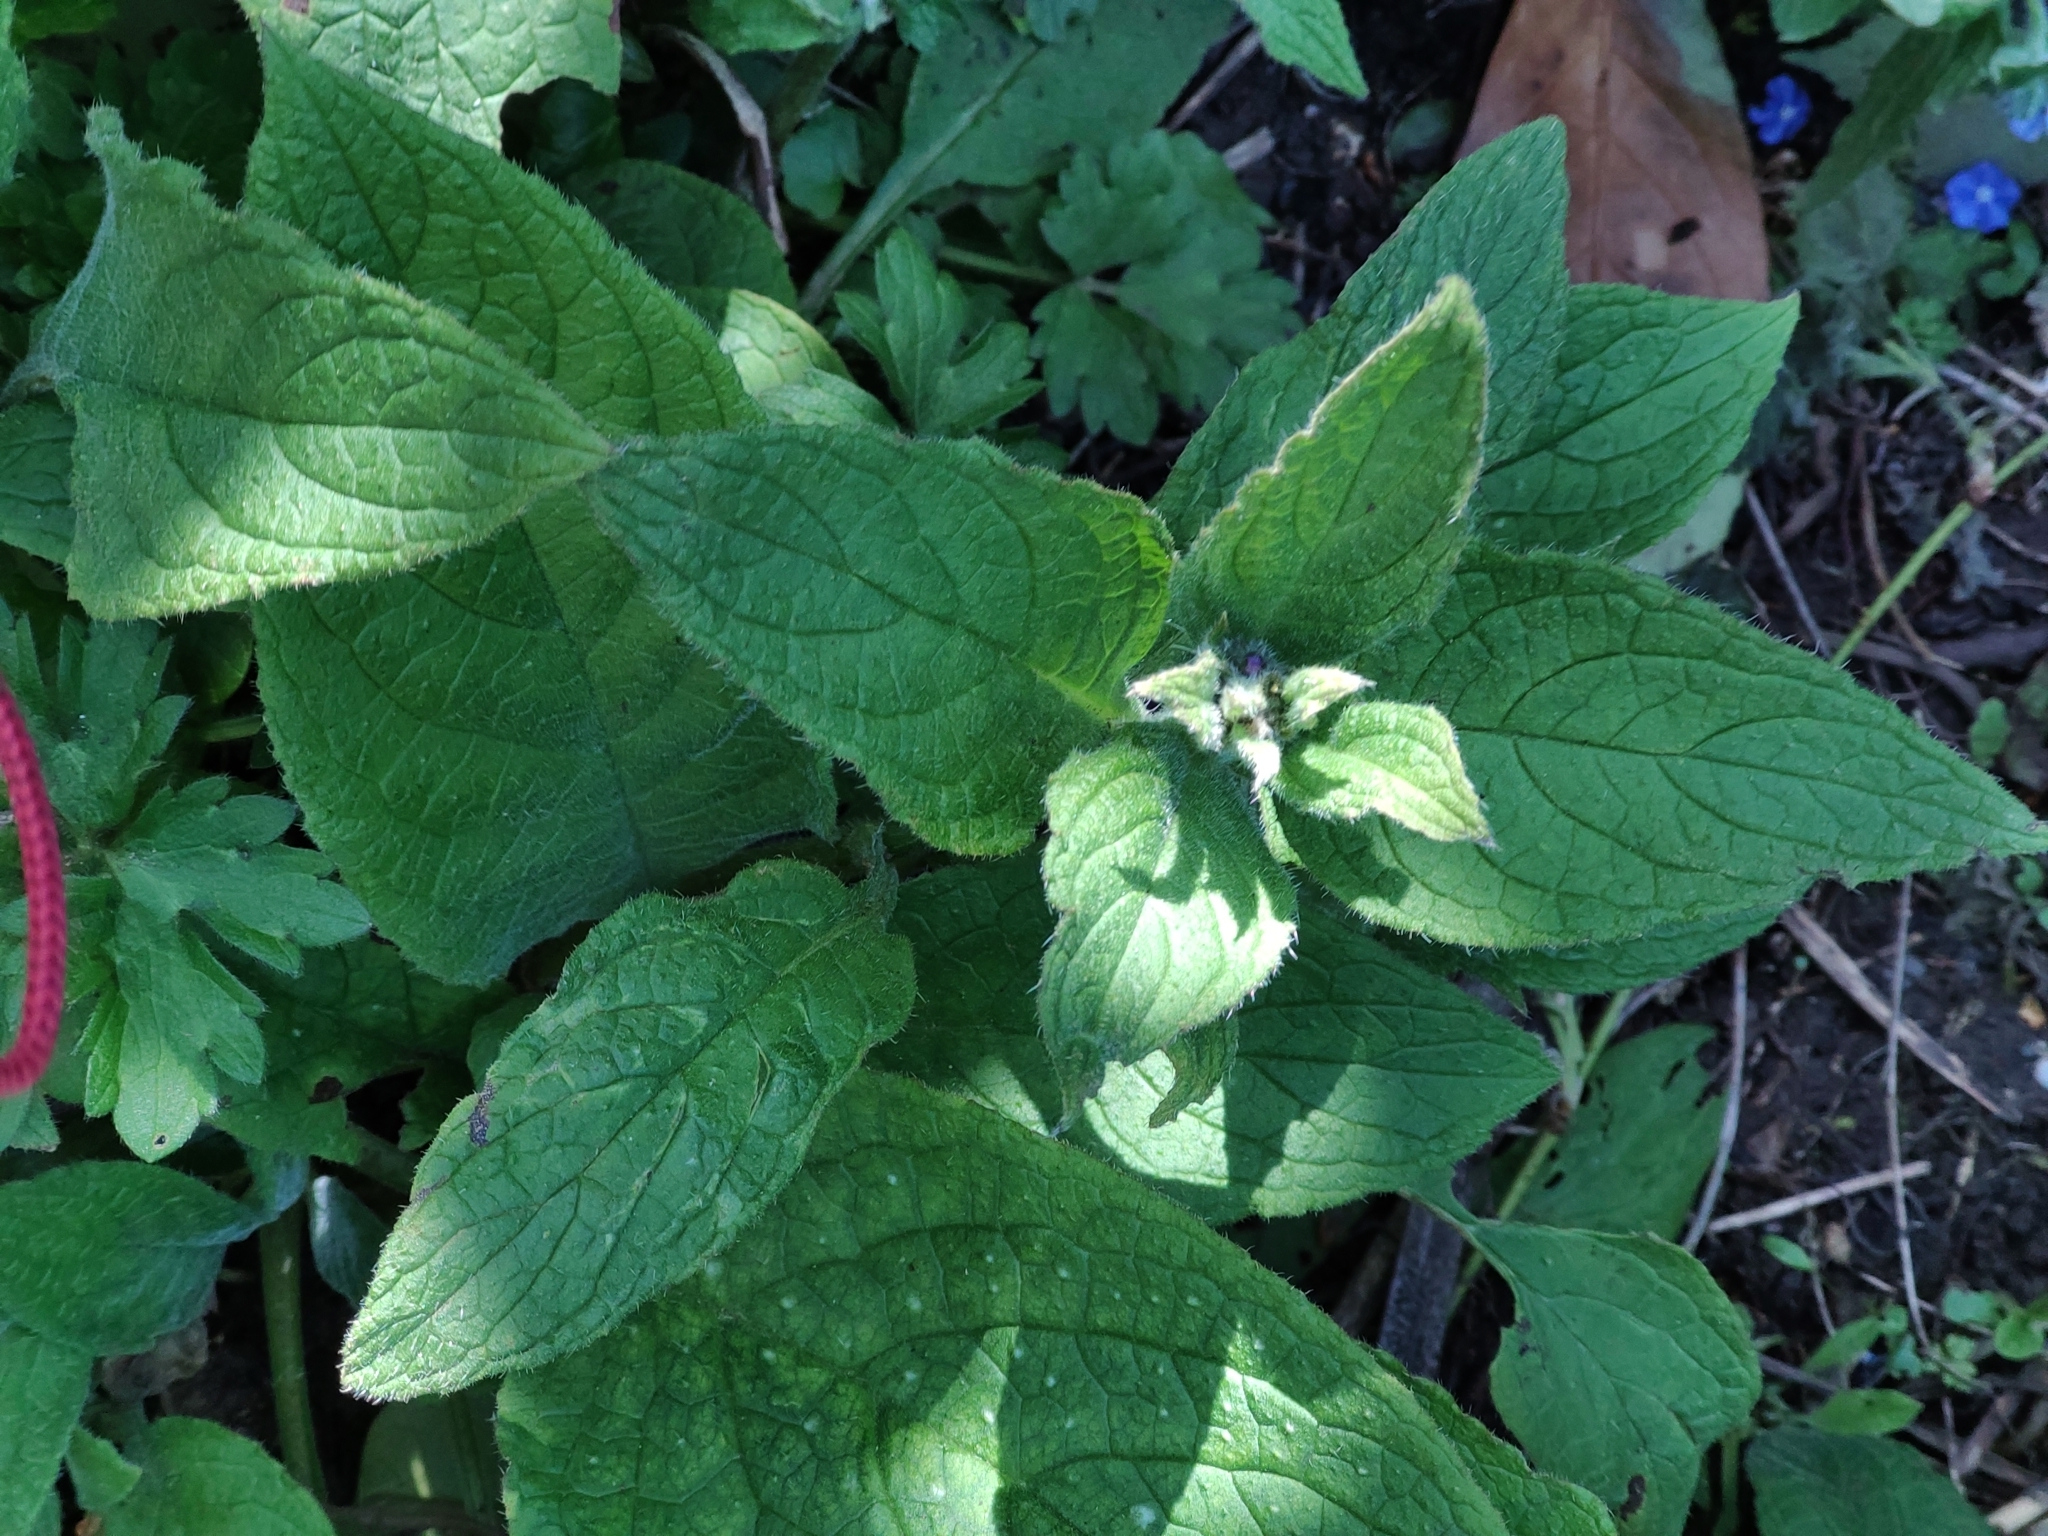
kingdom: Plantae
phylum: Tracheophyta
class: Magnoliopsida
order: Lamiales
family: Plantaginaceae
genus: Digitalis
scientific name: Digitalis purpurea
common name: Foxglove
